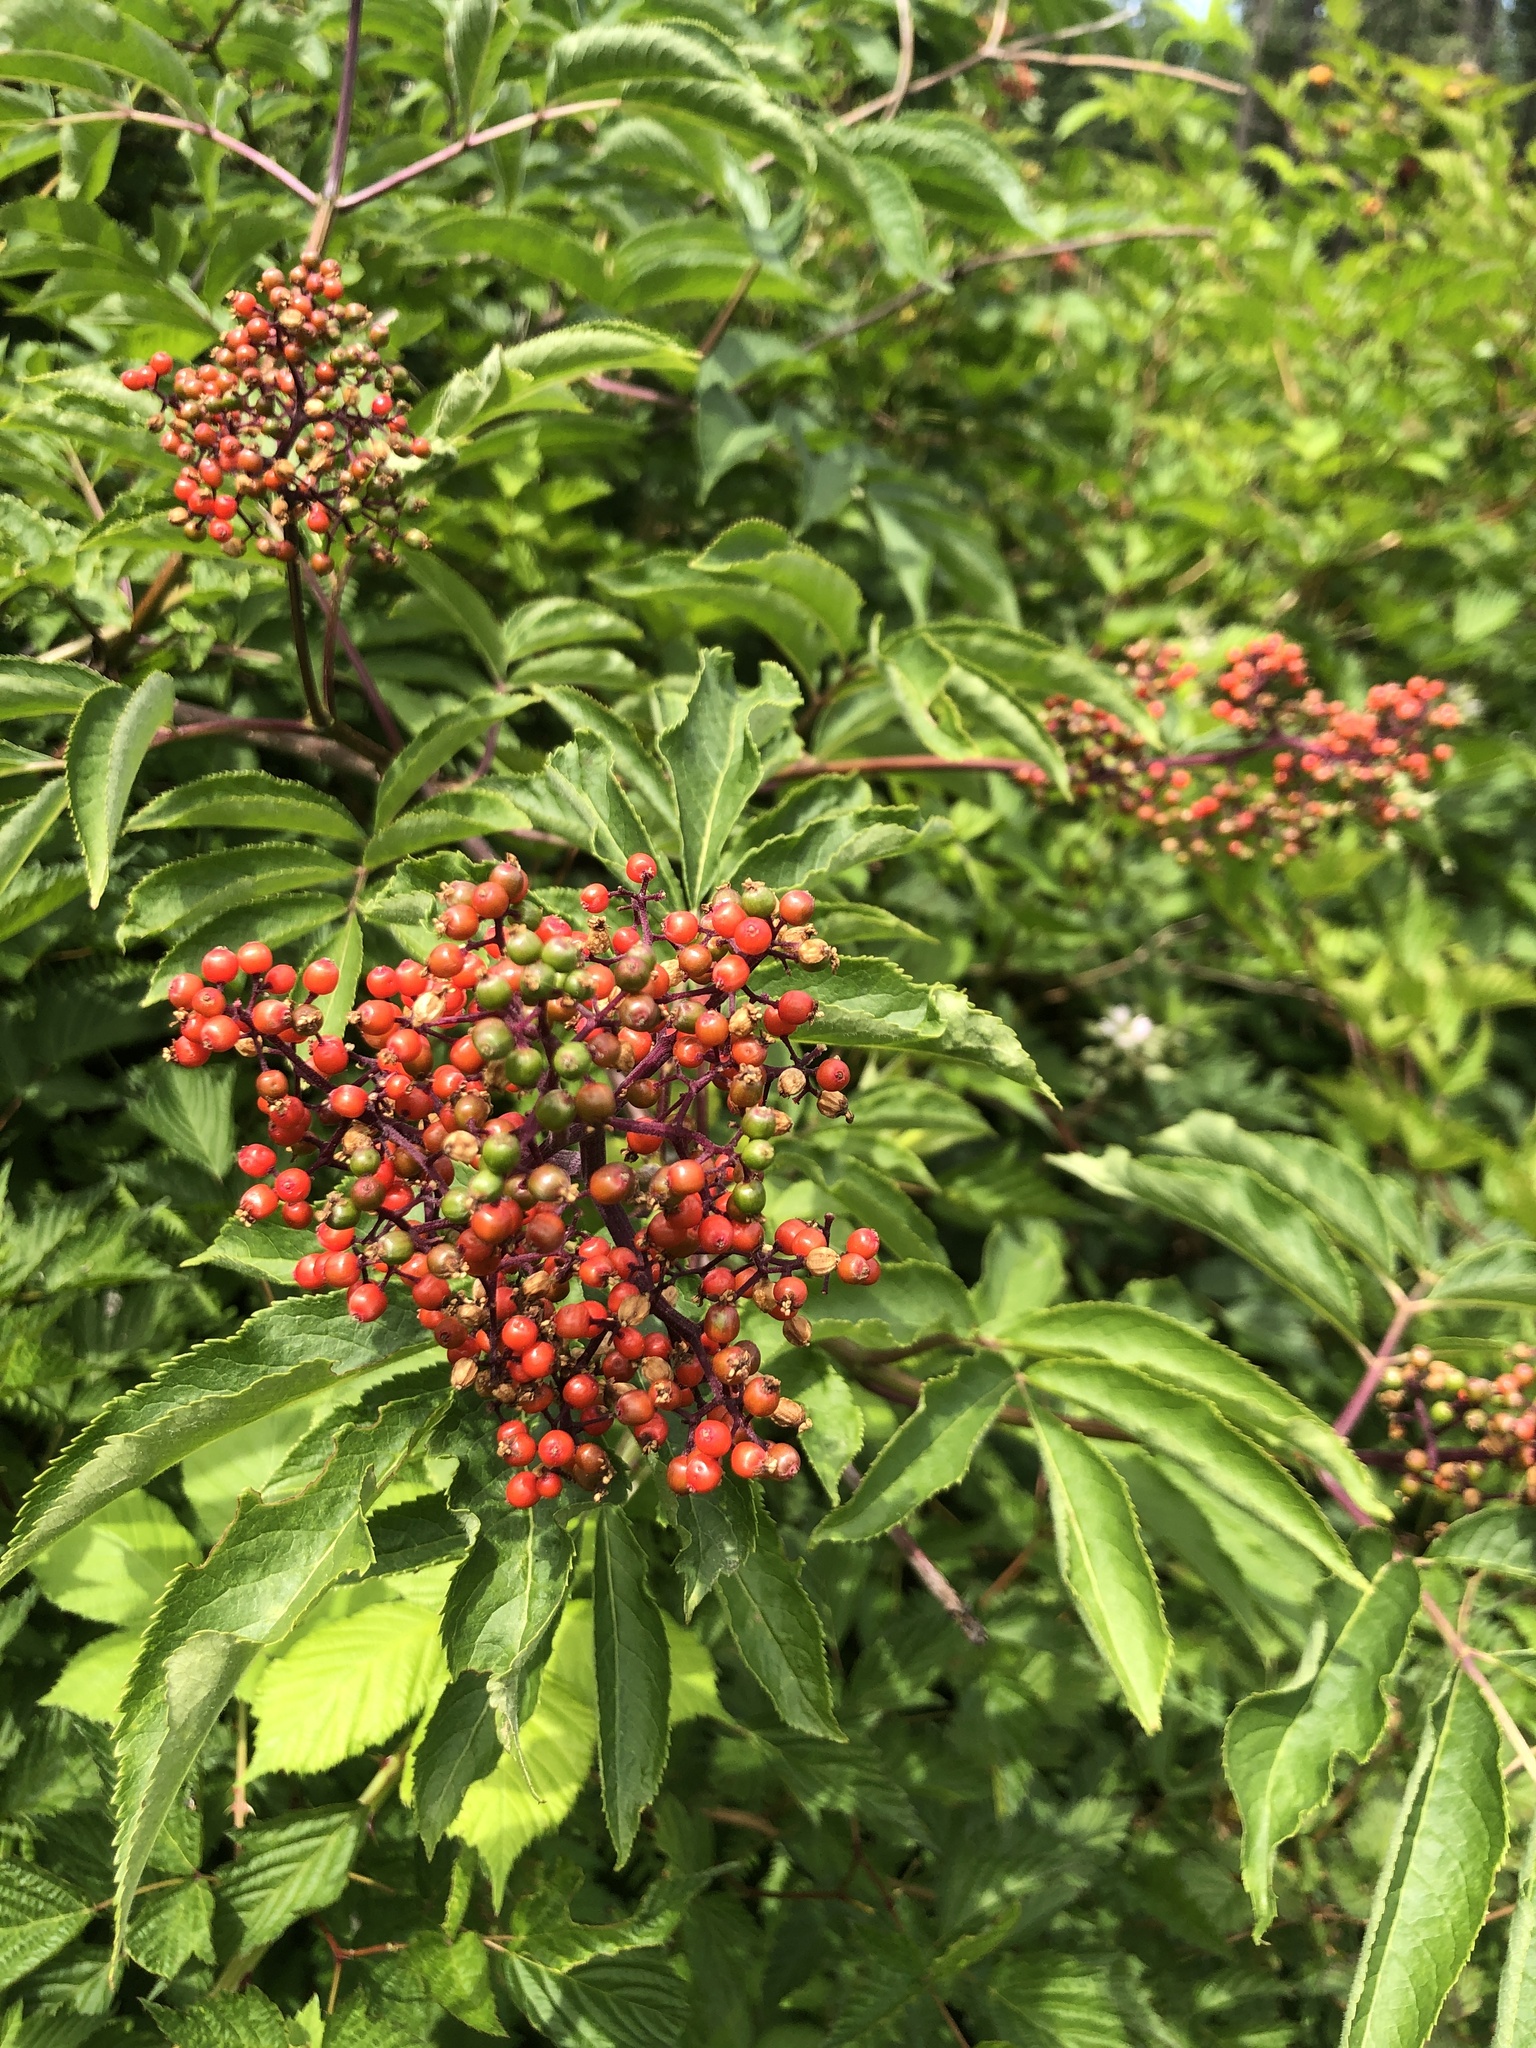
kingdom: Plantae
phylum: Tracheophyta
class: Magnoliopsida
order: Dipsacales
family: Viburnaceae
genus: Sambucus
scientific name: Sambucus racemosa
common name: Red-berried elder
